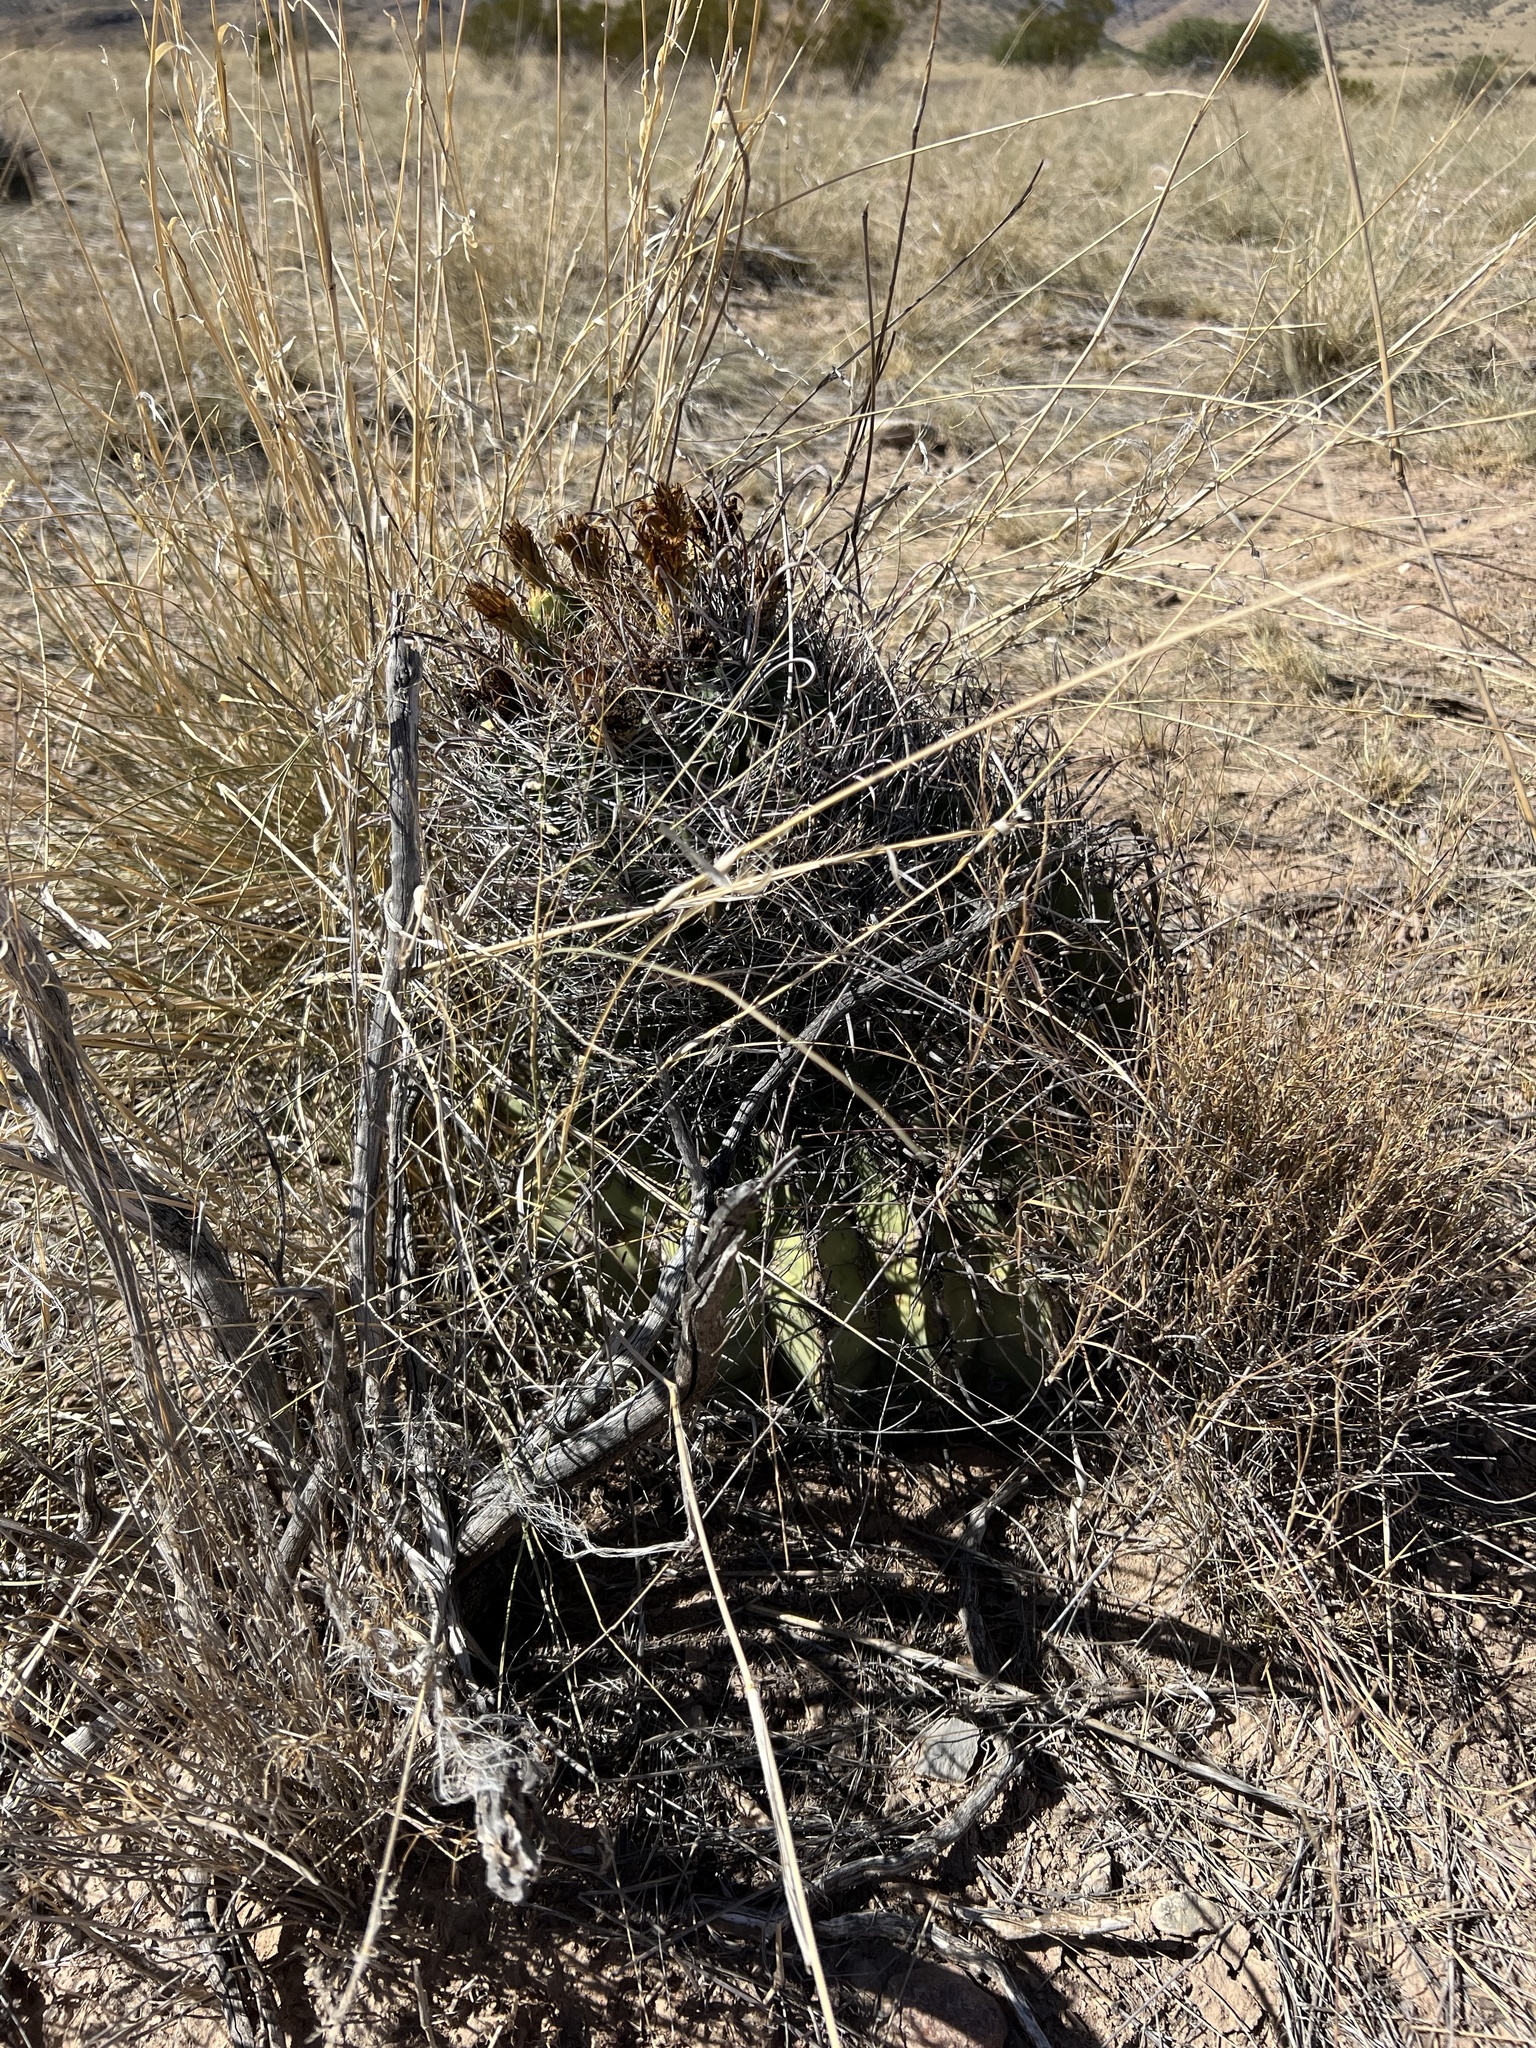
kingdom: Plantae
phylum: Tracheophyta
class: Magnoliopsida
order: Caryophyllales
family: Cactaceae
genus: Ferocactus
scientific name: Ferocactus wislizeni
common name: Candy barrel cactus
